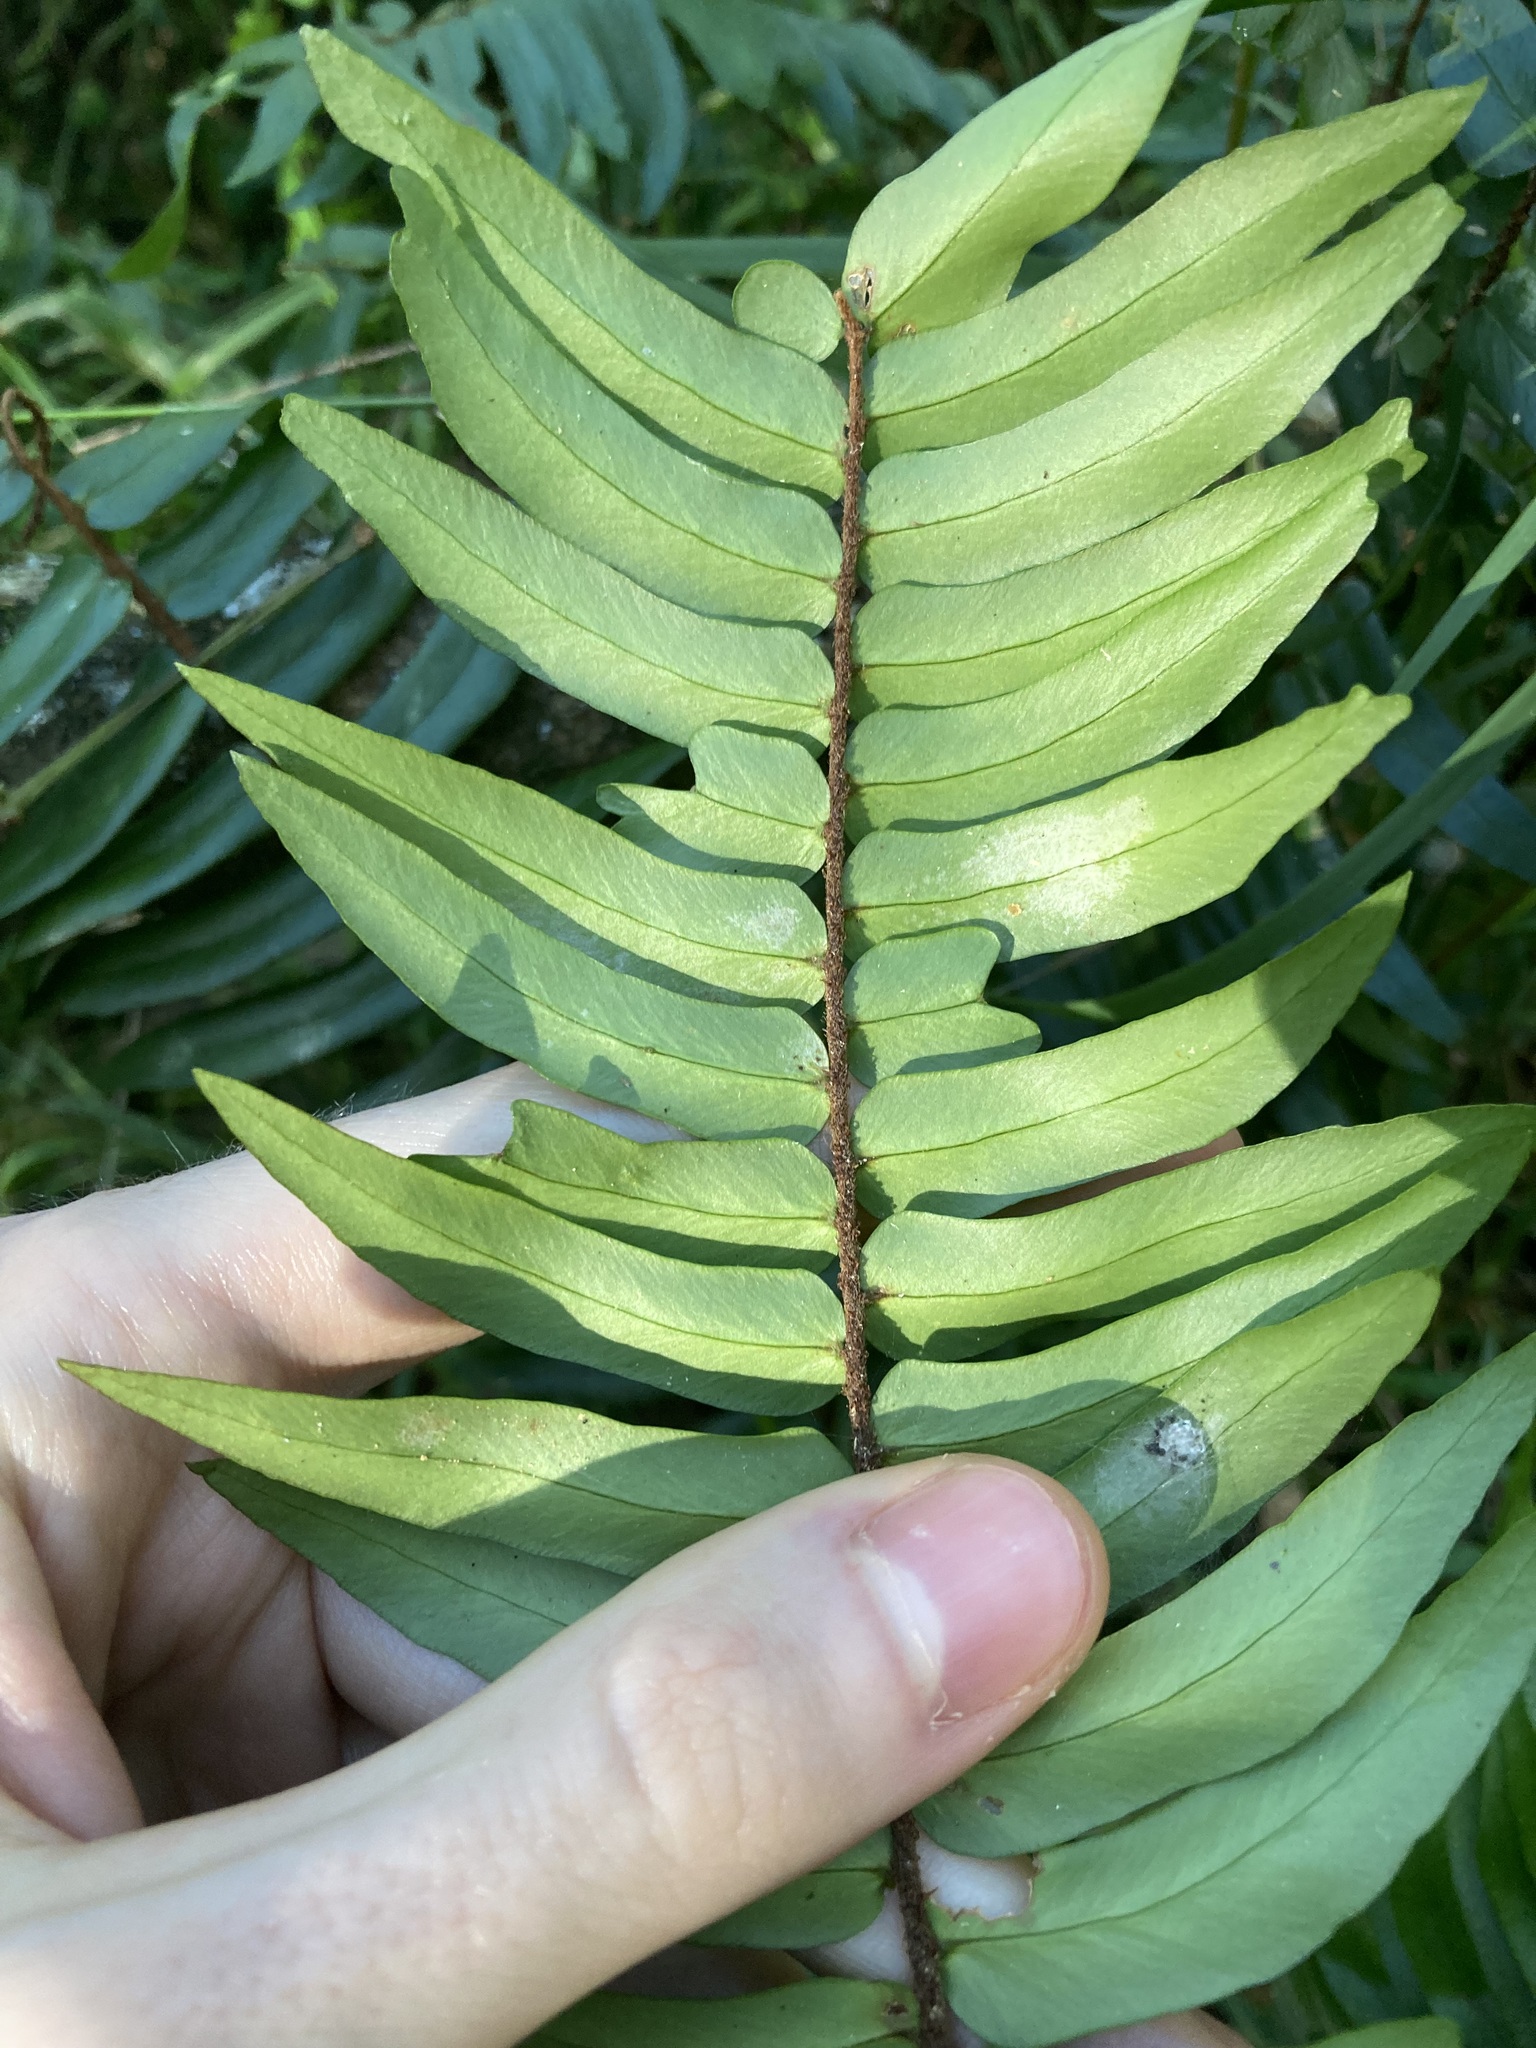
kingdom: Plantae
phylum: Tracheophyta
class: Polypodiopsida
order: Polypodiales
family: Pteridaceae
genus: Pellaea
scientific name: Pellaea falcata
